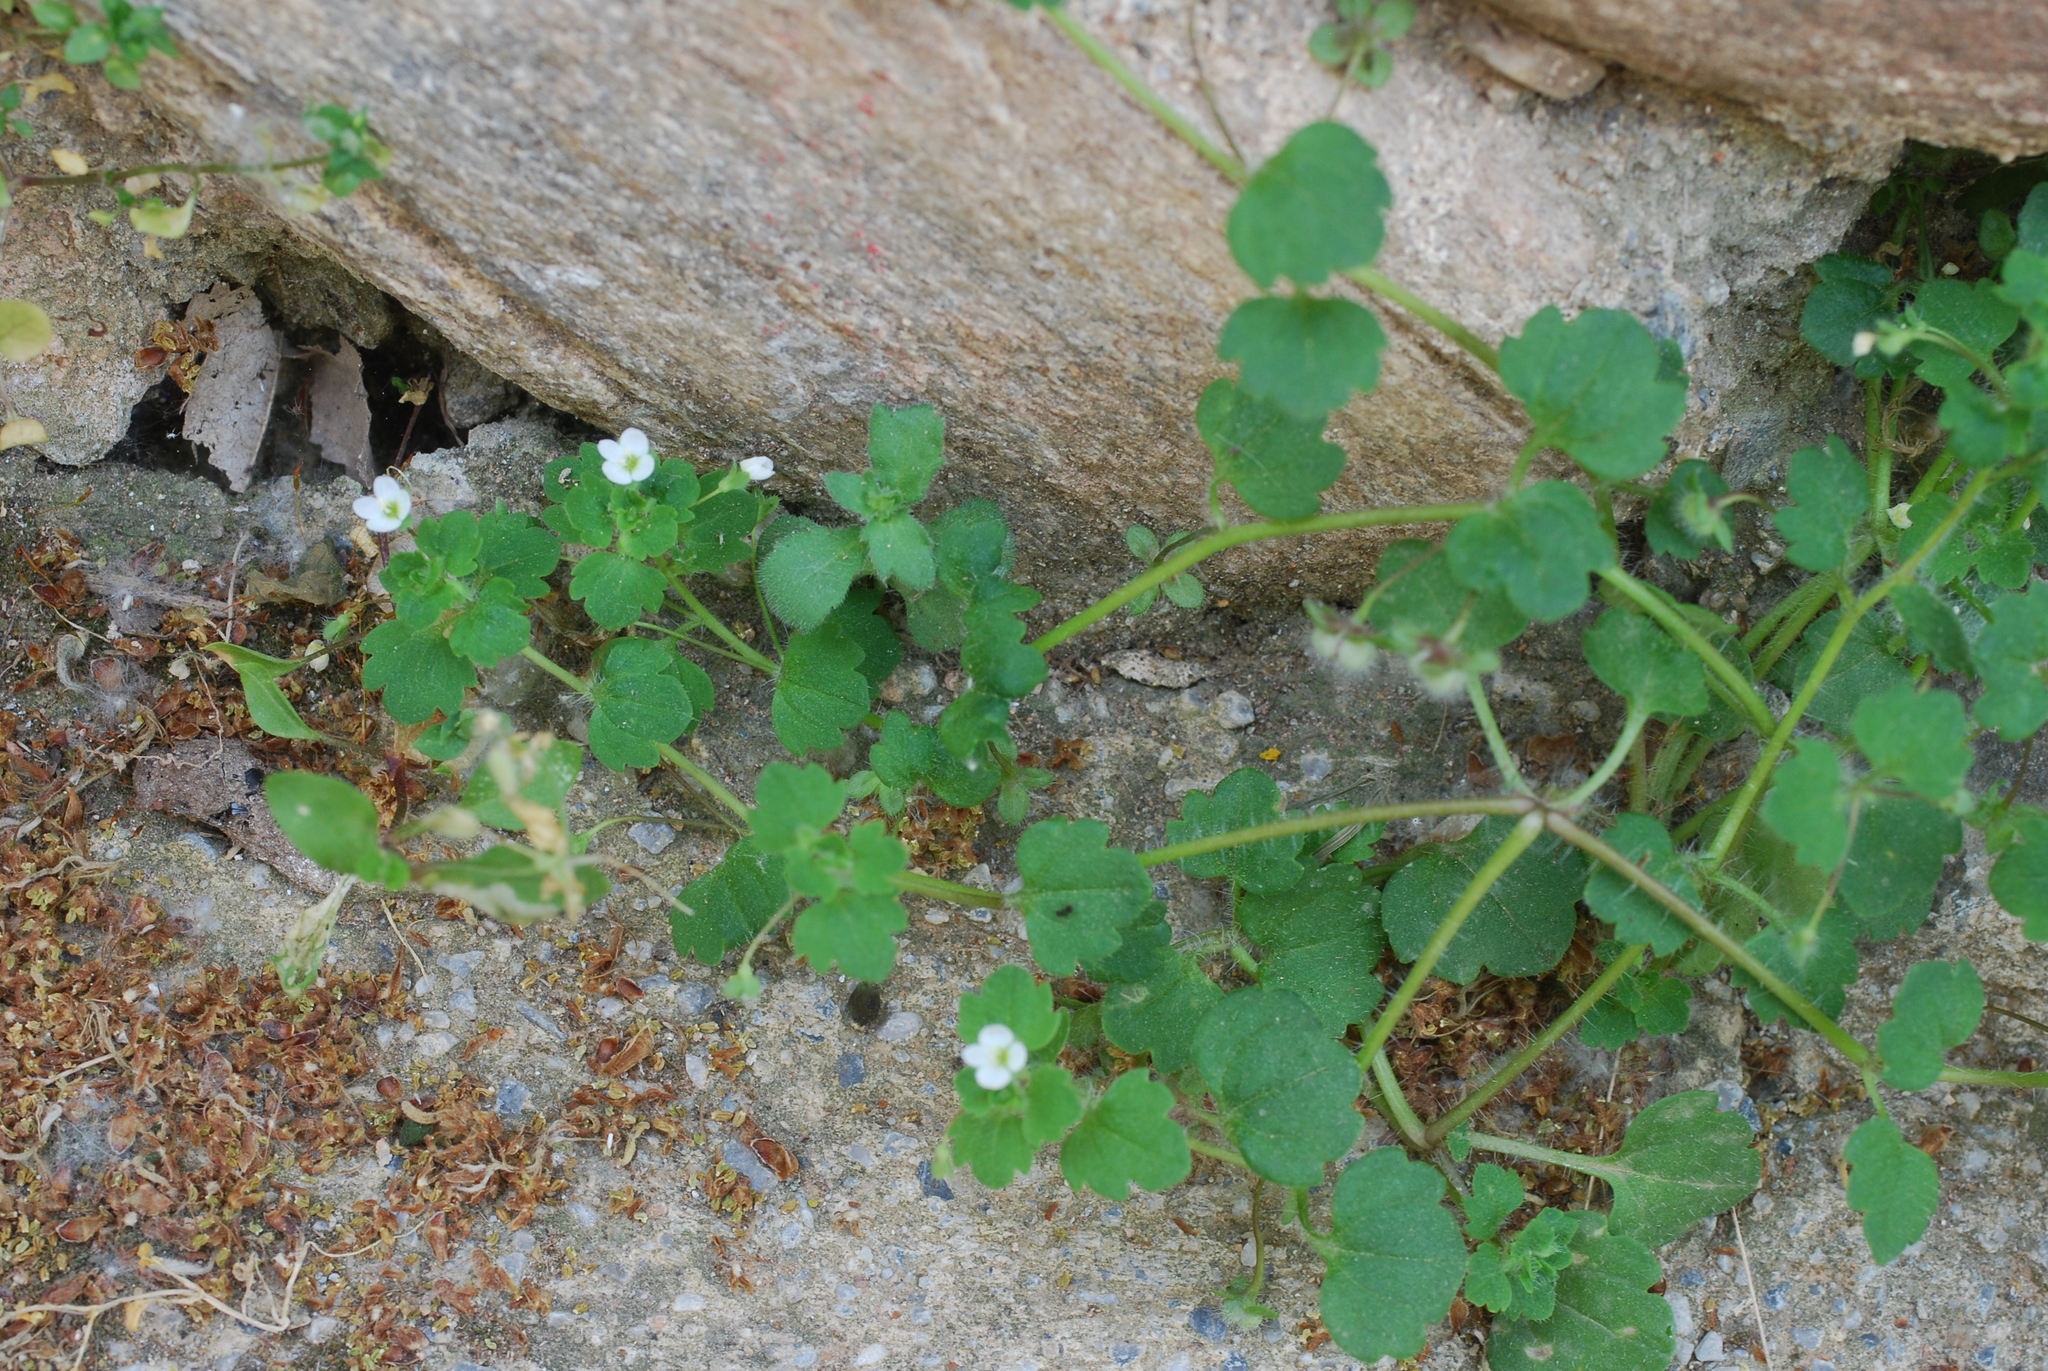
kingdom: Plantae
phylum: Tracheophyta
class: Magnoliopsida
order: Lamiales
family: Plantaginaceae
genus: Veronica
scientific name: Veronica cymbalaria
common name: Pale speedwell
